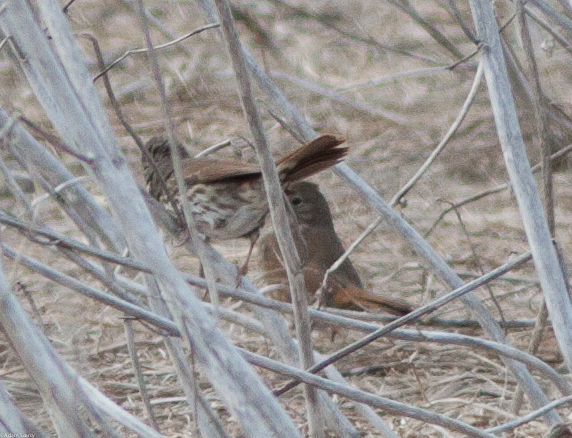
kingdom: Animalia
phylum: Chordata
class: Aves
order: Passeriformes
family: Passerellidae
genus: Passerella
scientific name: Passerella iliaca
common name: Fox sparrow
